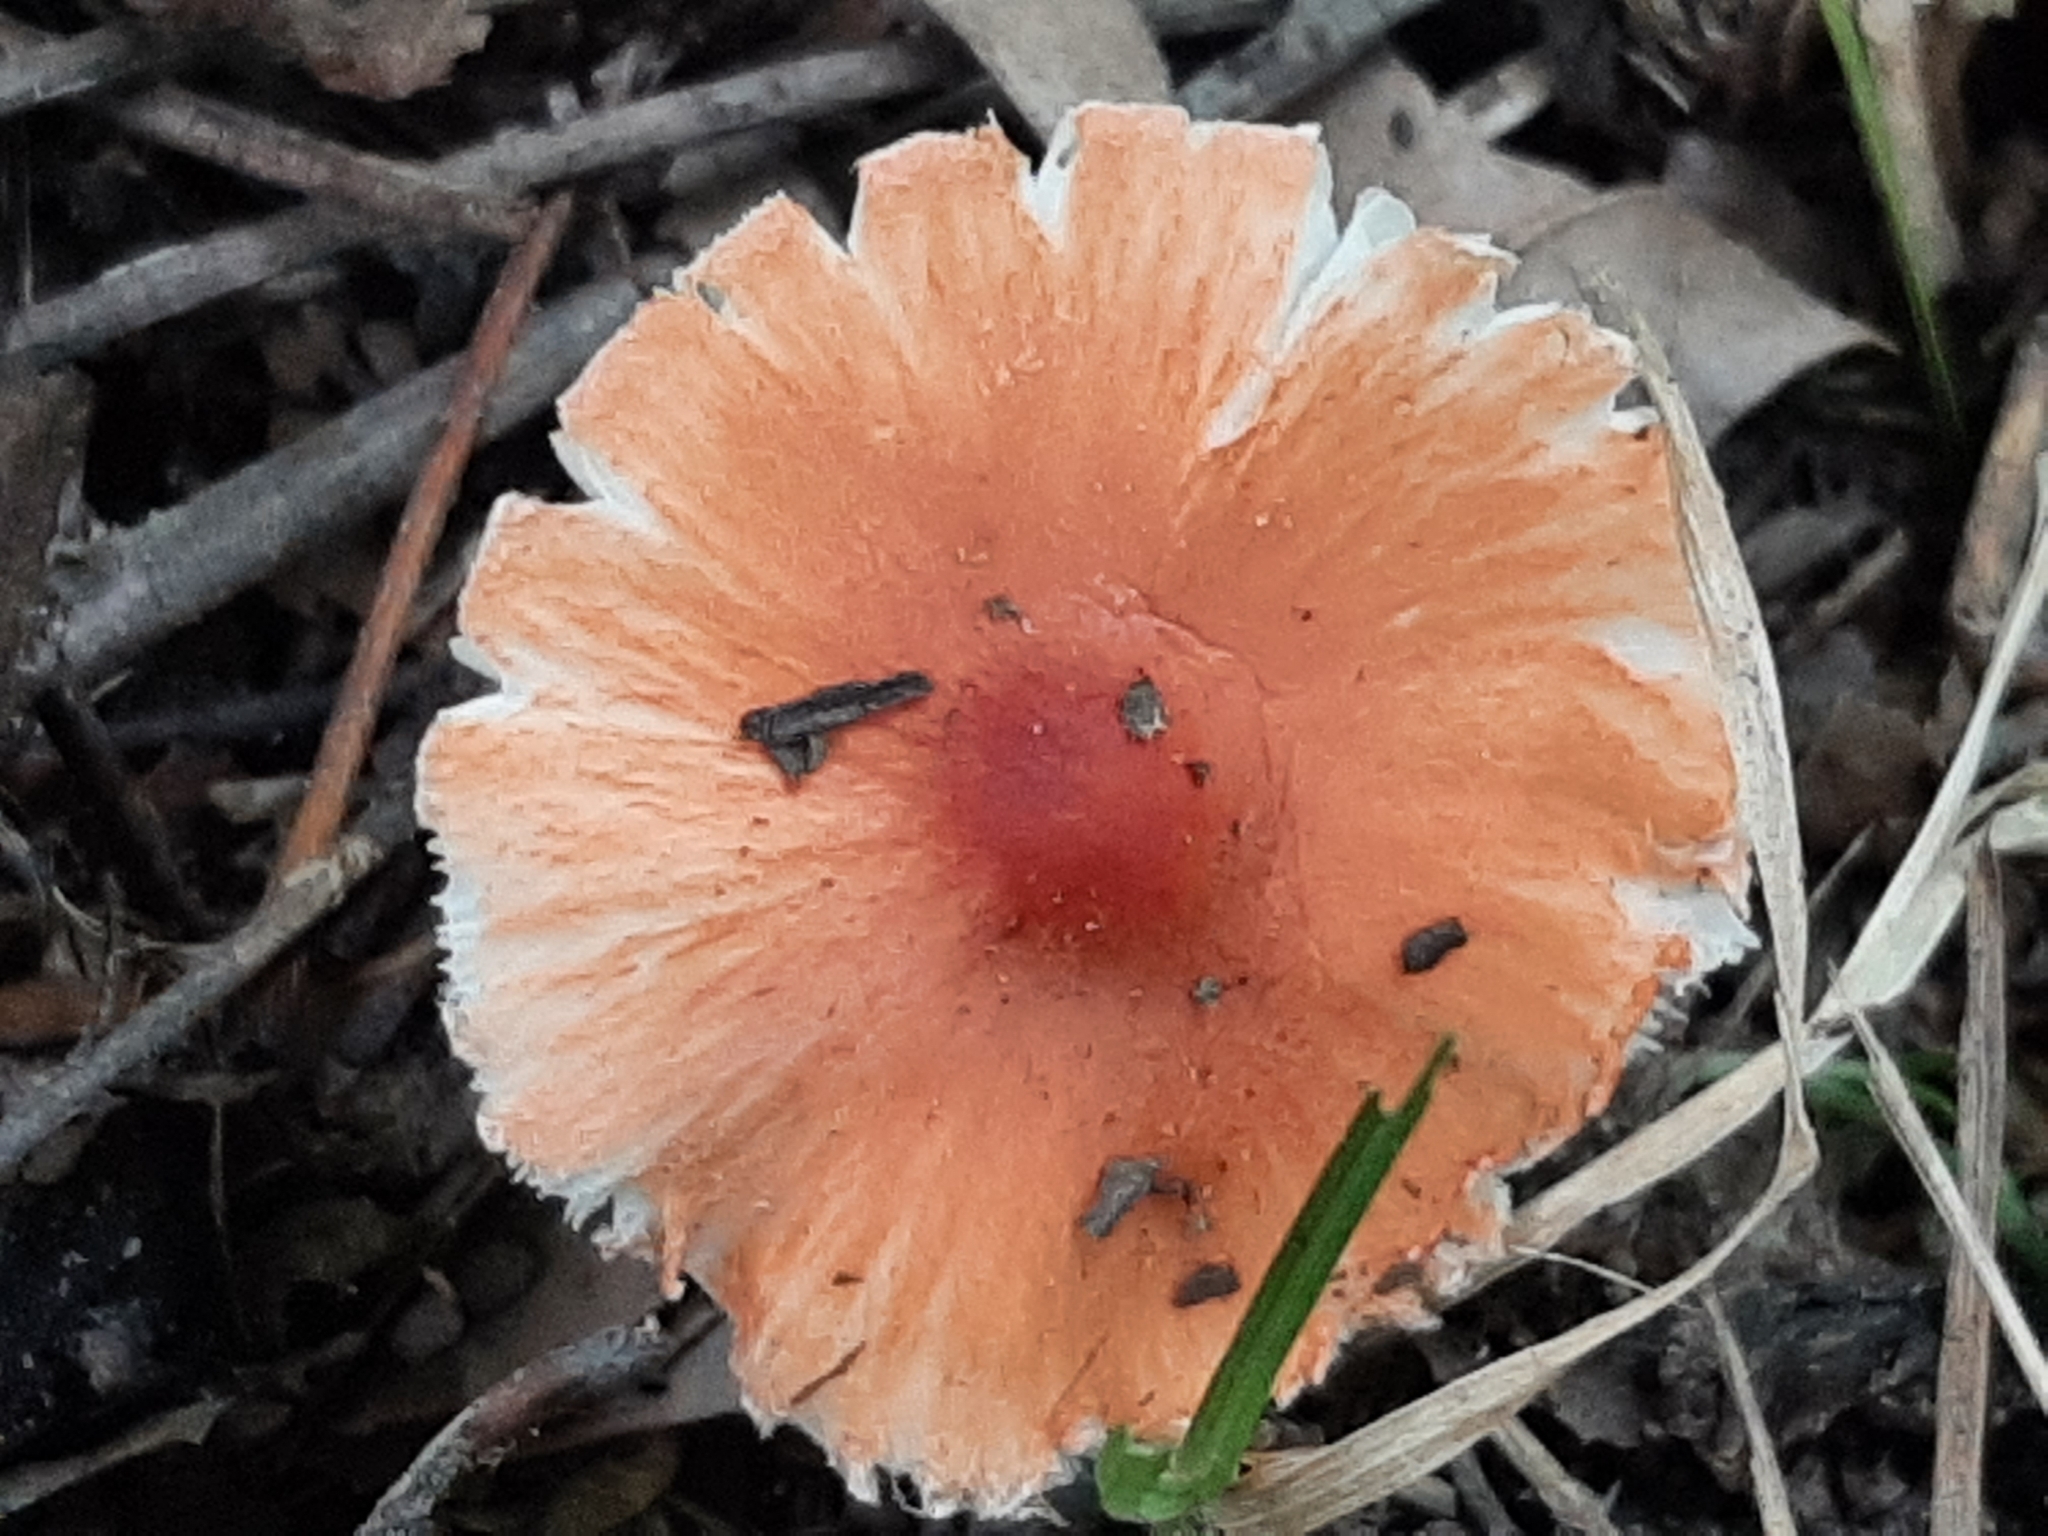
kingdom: Fungi
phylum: Basidiomycota
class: Agaricomycetes
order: Agaricales
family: Agaricaceae
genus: Lepiota
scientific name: Lepiota rubrotinctoides
